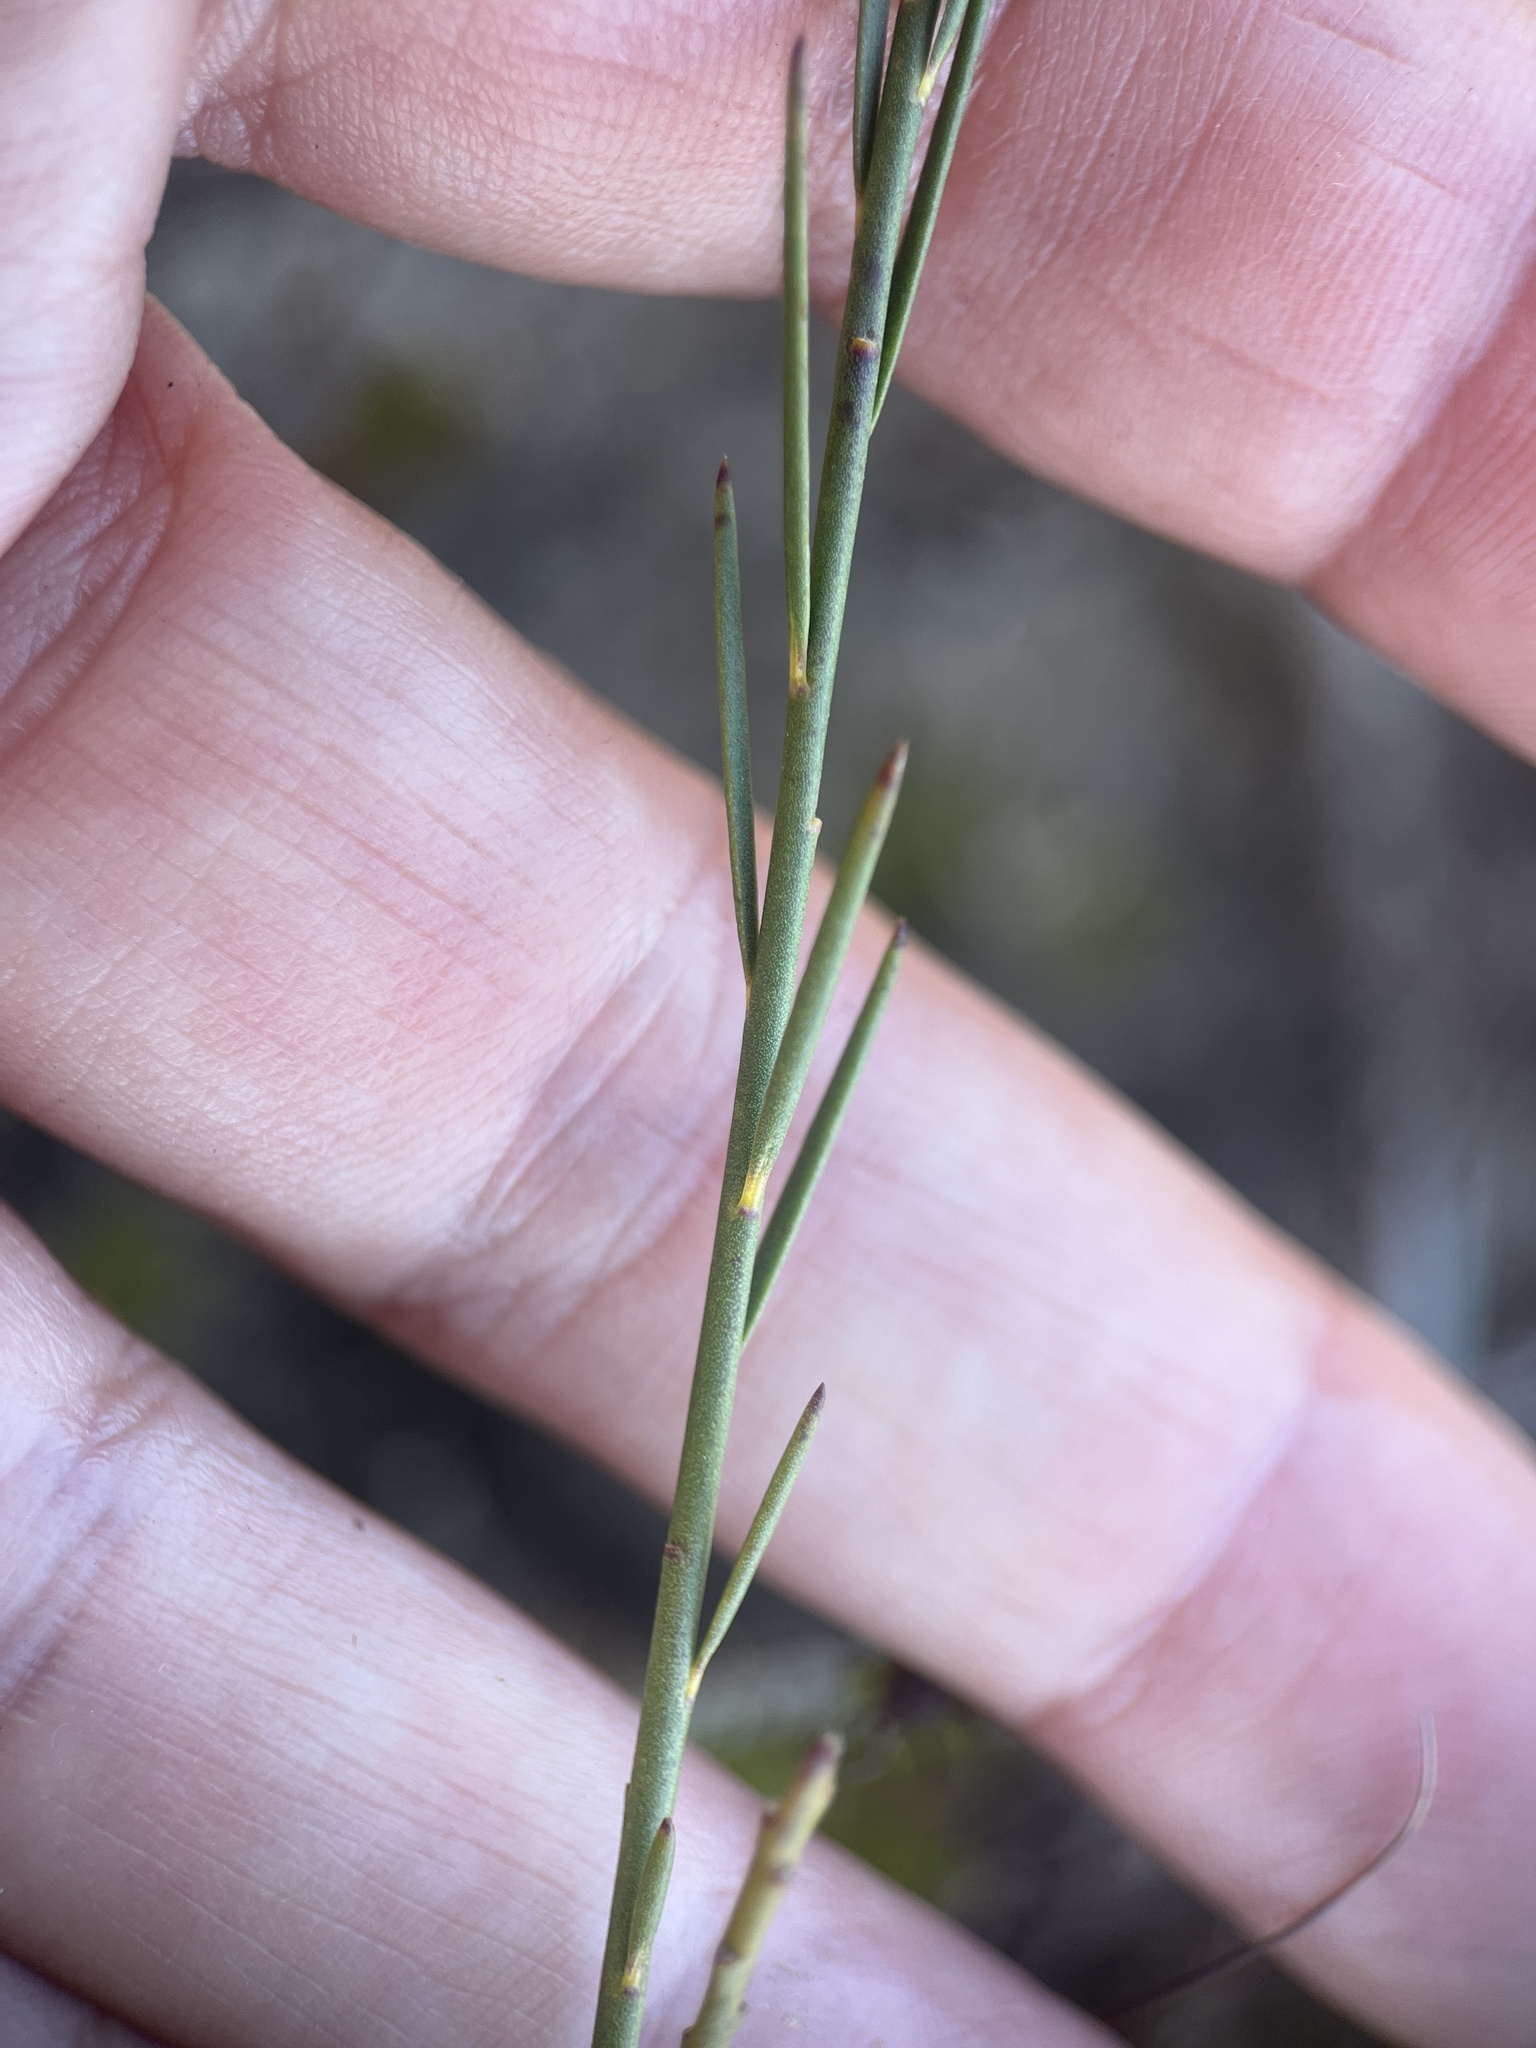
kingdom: Plantae
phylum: Tracheophyta
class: Magnoliopsida
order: Fabales
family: Polygalaceae
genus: Polygala
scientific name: Polygala garcini
